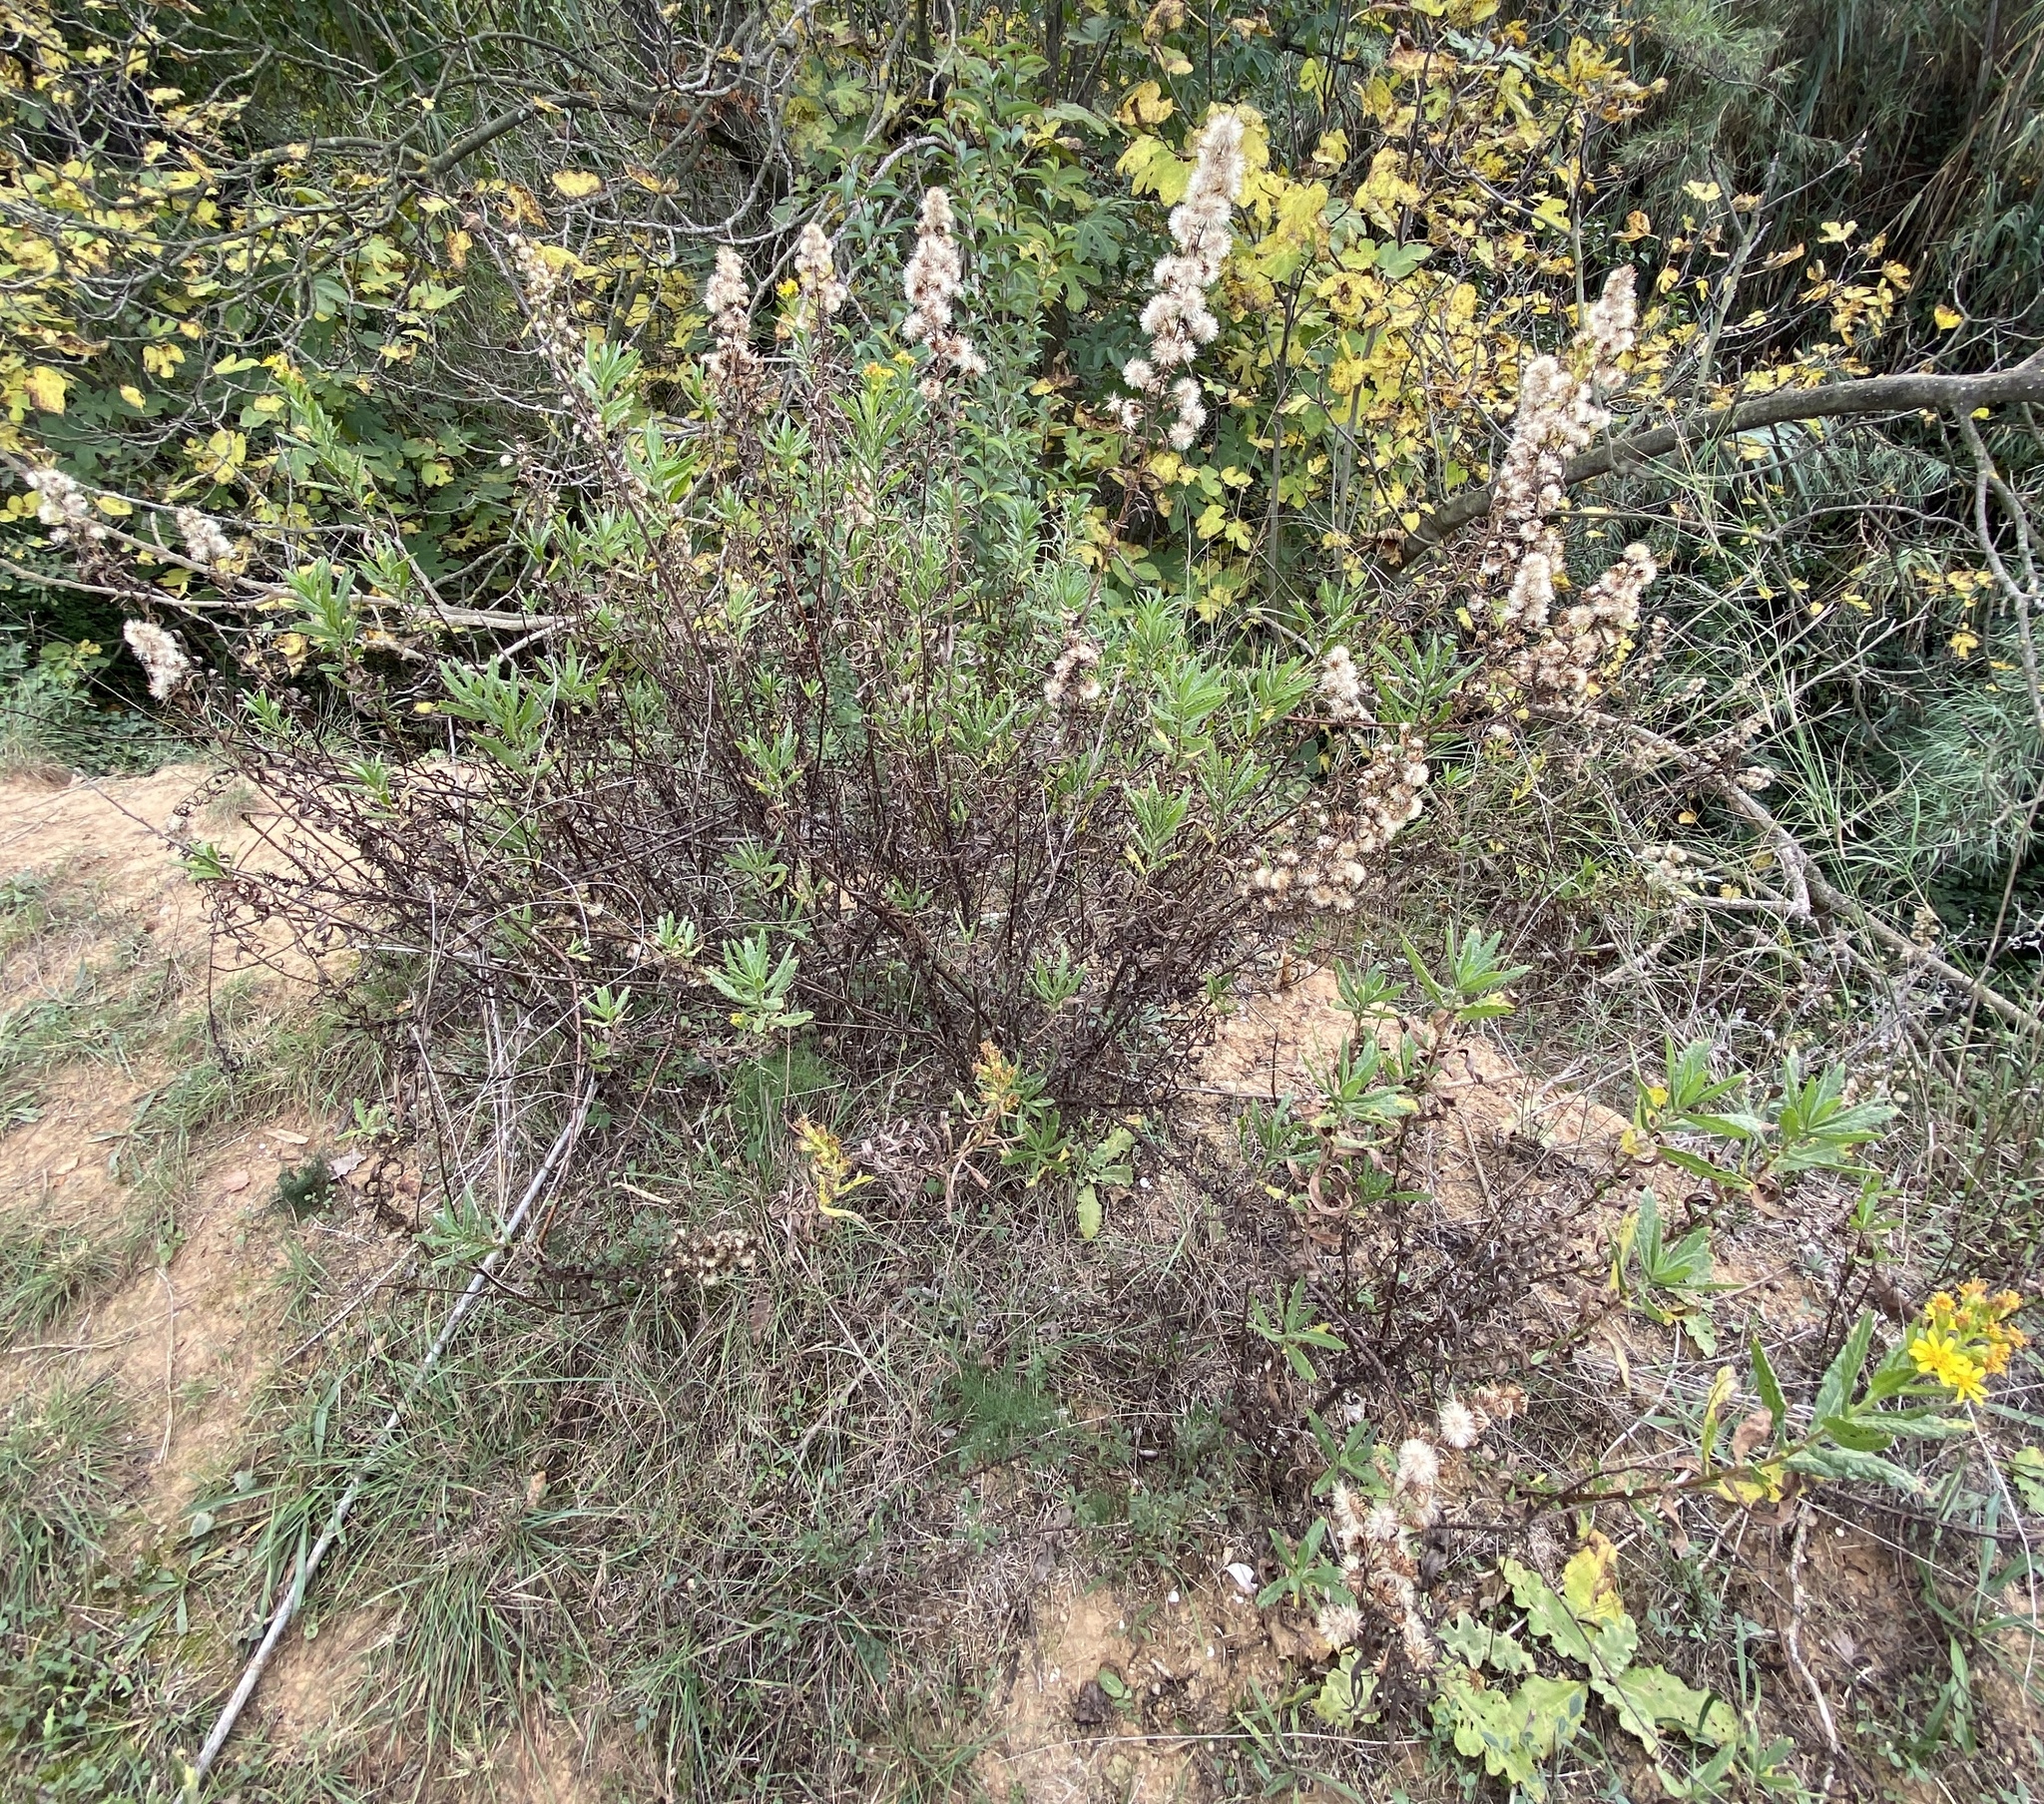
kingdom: Plantae
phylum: Tracheophyta
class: Magnoliopsida
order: Asterales
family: Asteraceae
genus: Dittrichia
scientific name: Dittrichia viscosa
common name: Woody fleabane
